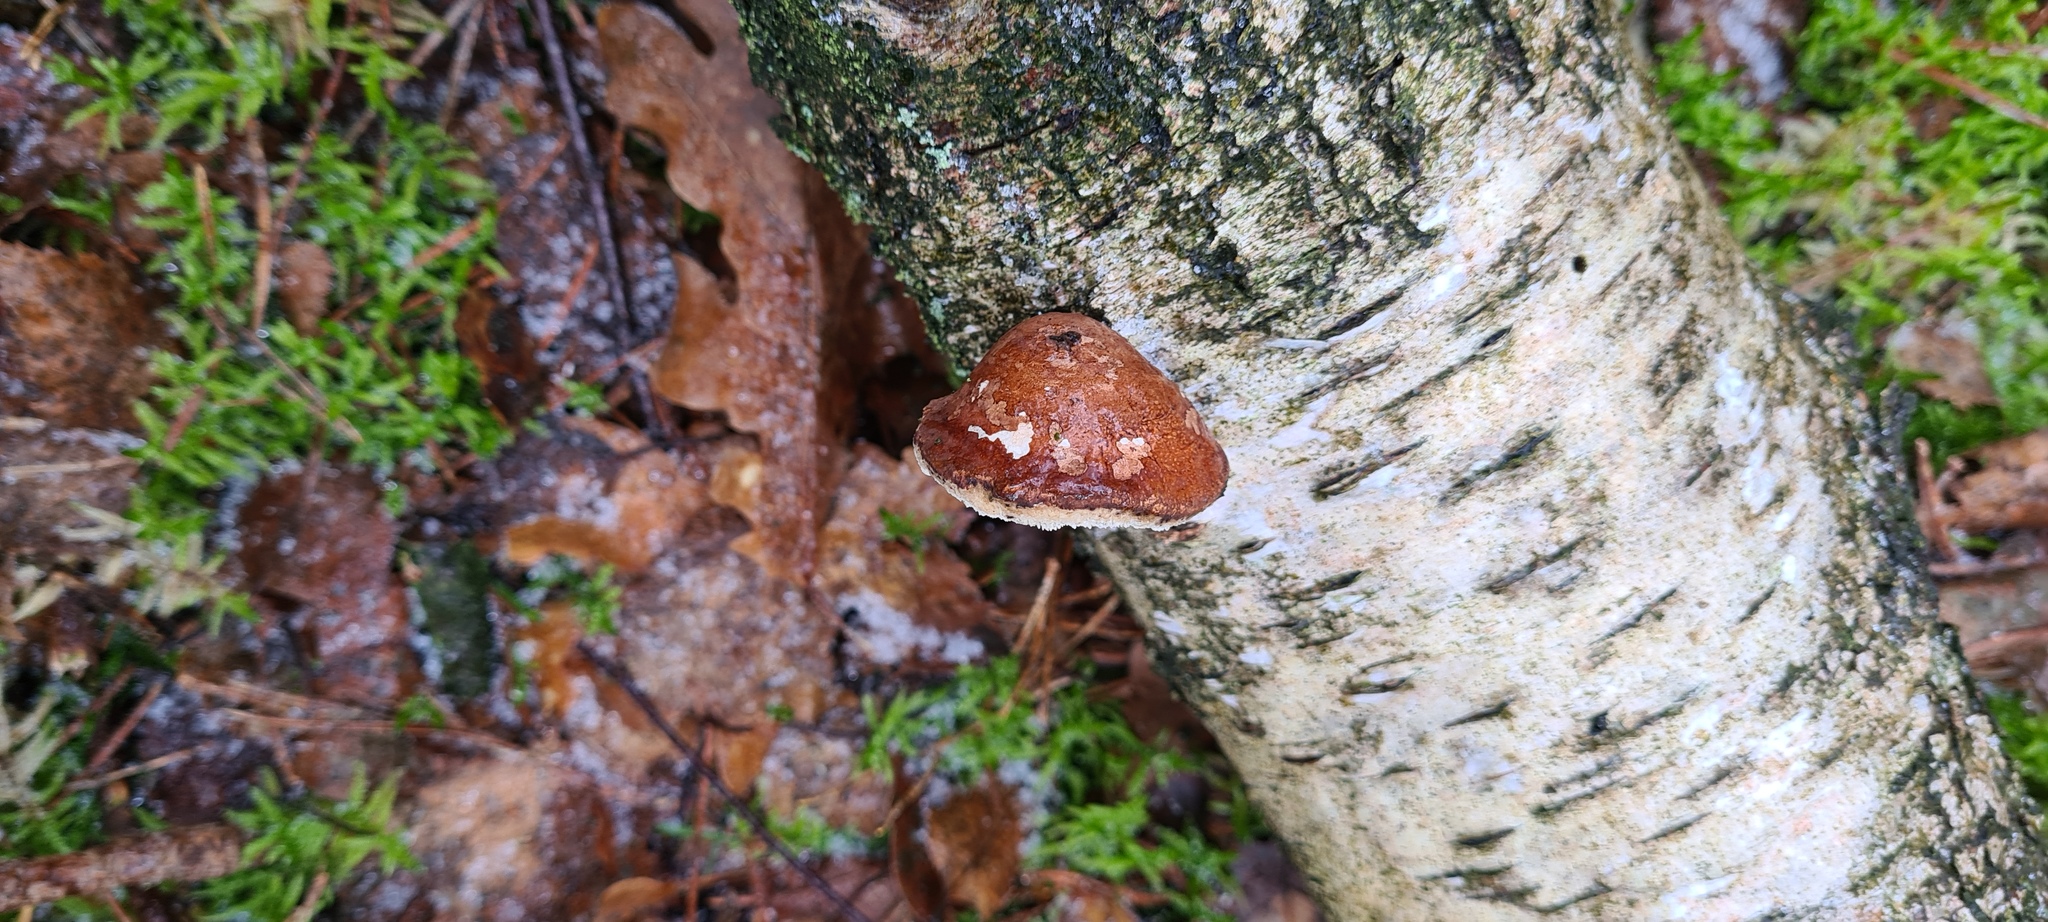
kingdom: Fungi
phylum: Basidiomycota
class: Agaricomycetes
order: Polyporales
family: Fomitopsidaceae
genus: Fomitopsis
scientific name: Fomitopsis betulina
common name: Birch polypore
